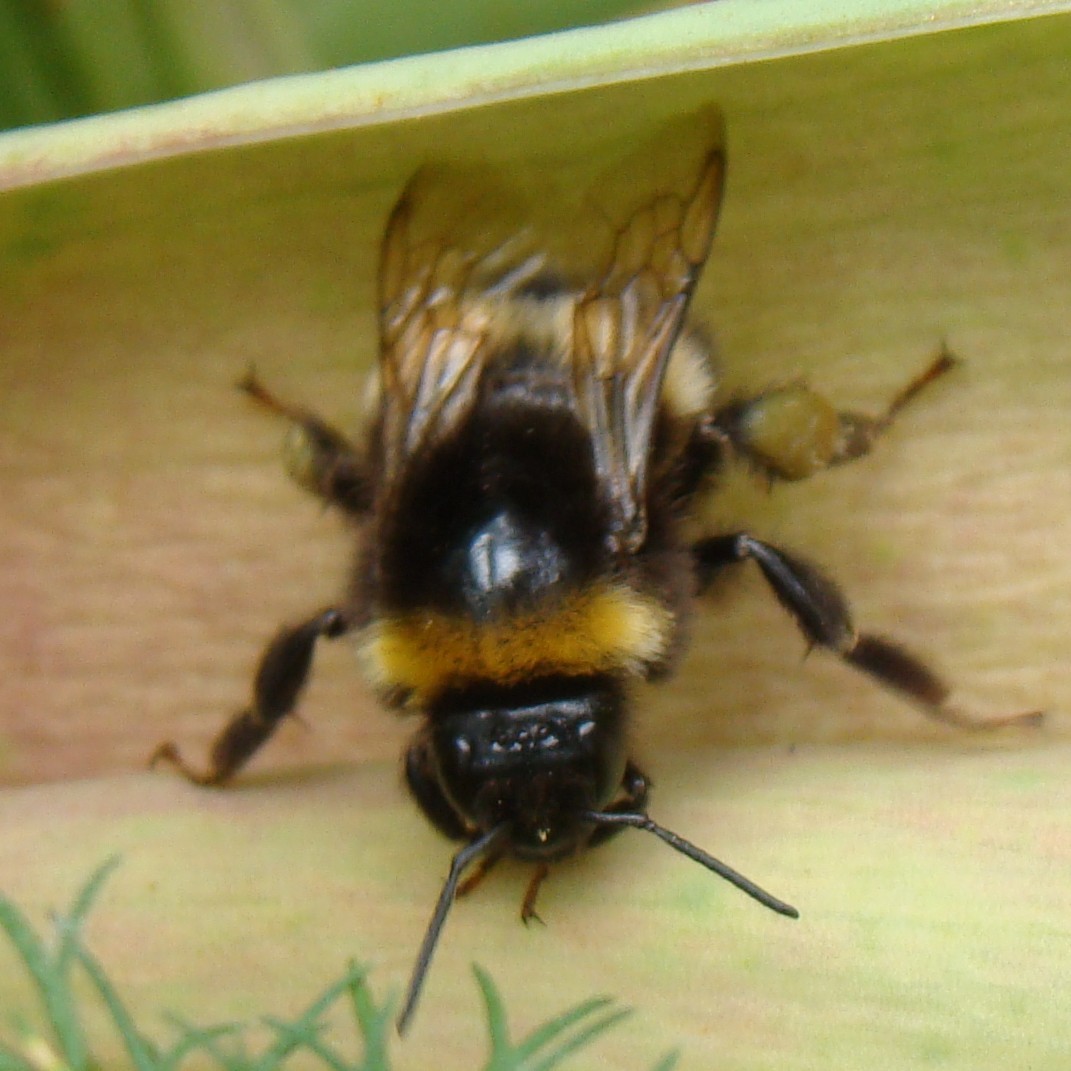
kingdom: Animalia
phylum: Arthropoda
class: Insecta
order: Hymenoptera
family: Apidae
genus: Bombus
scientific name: Bombus
